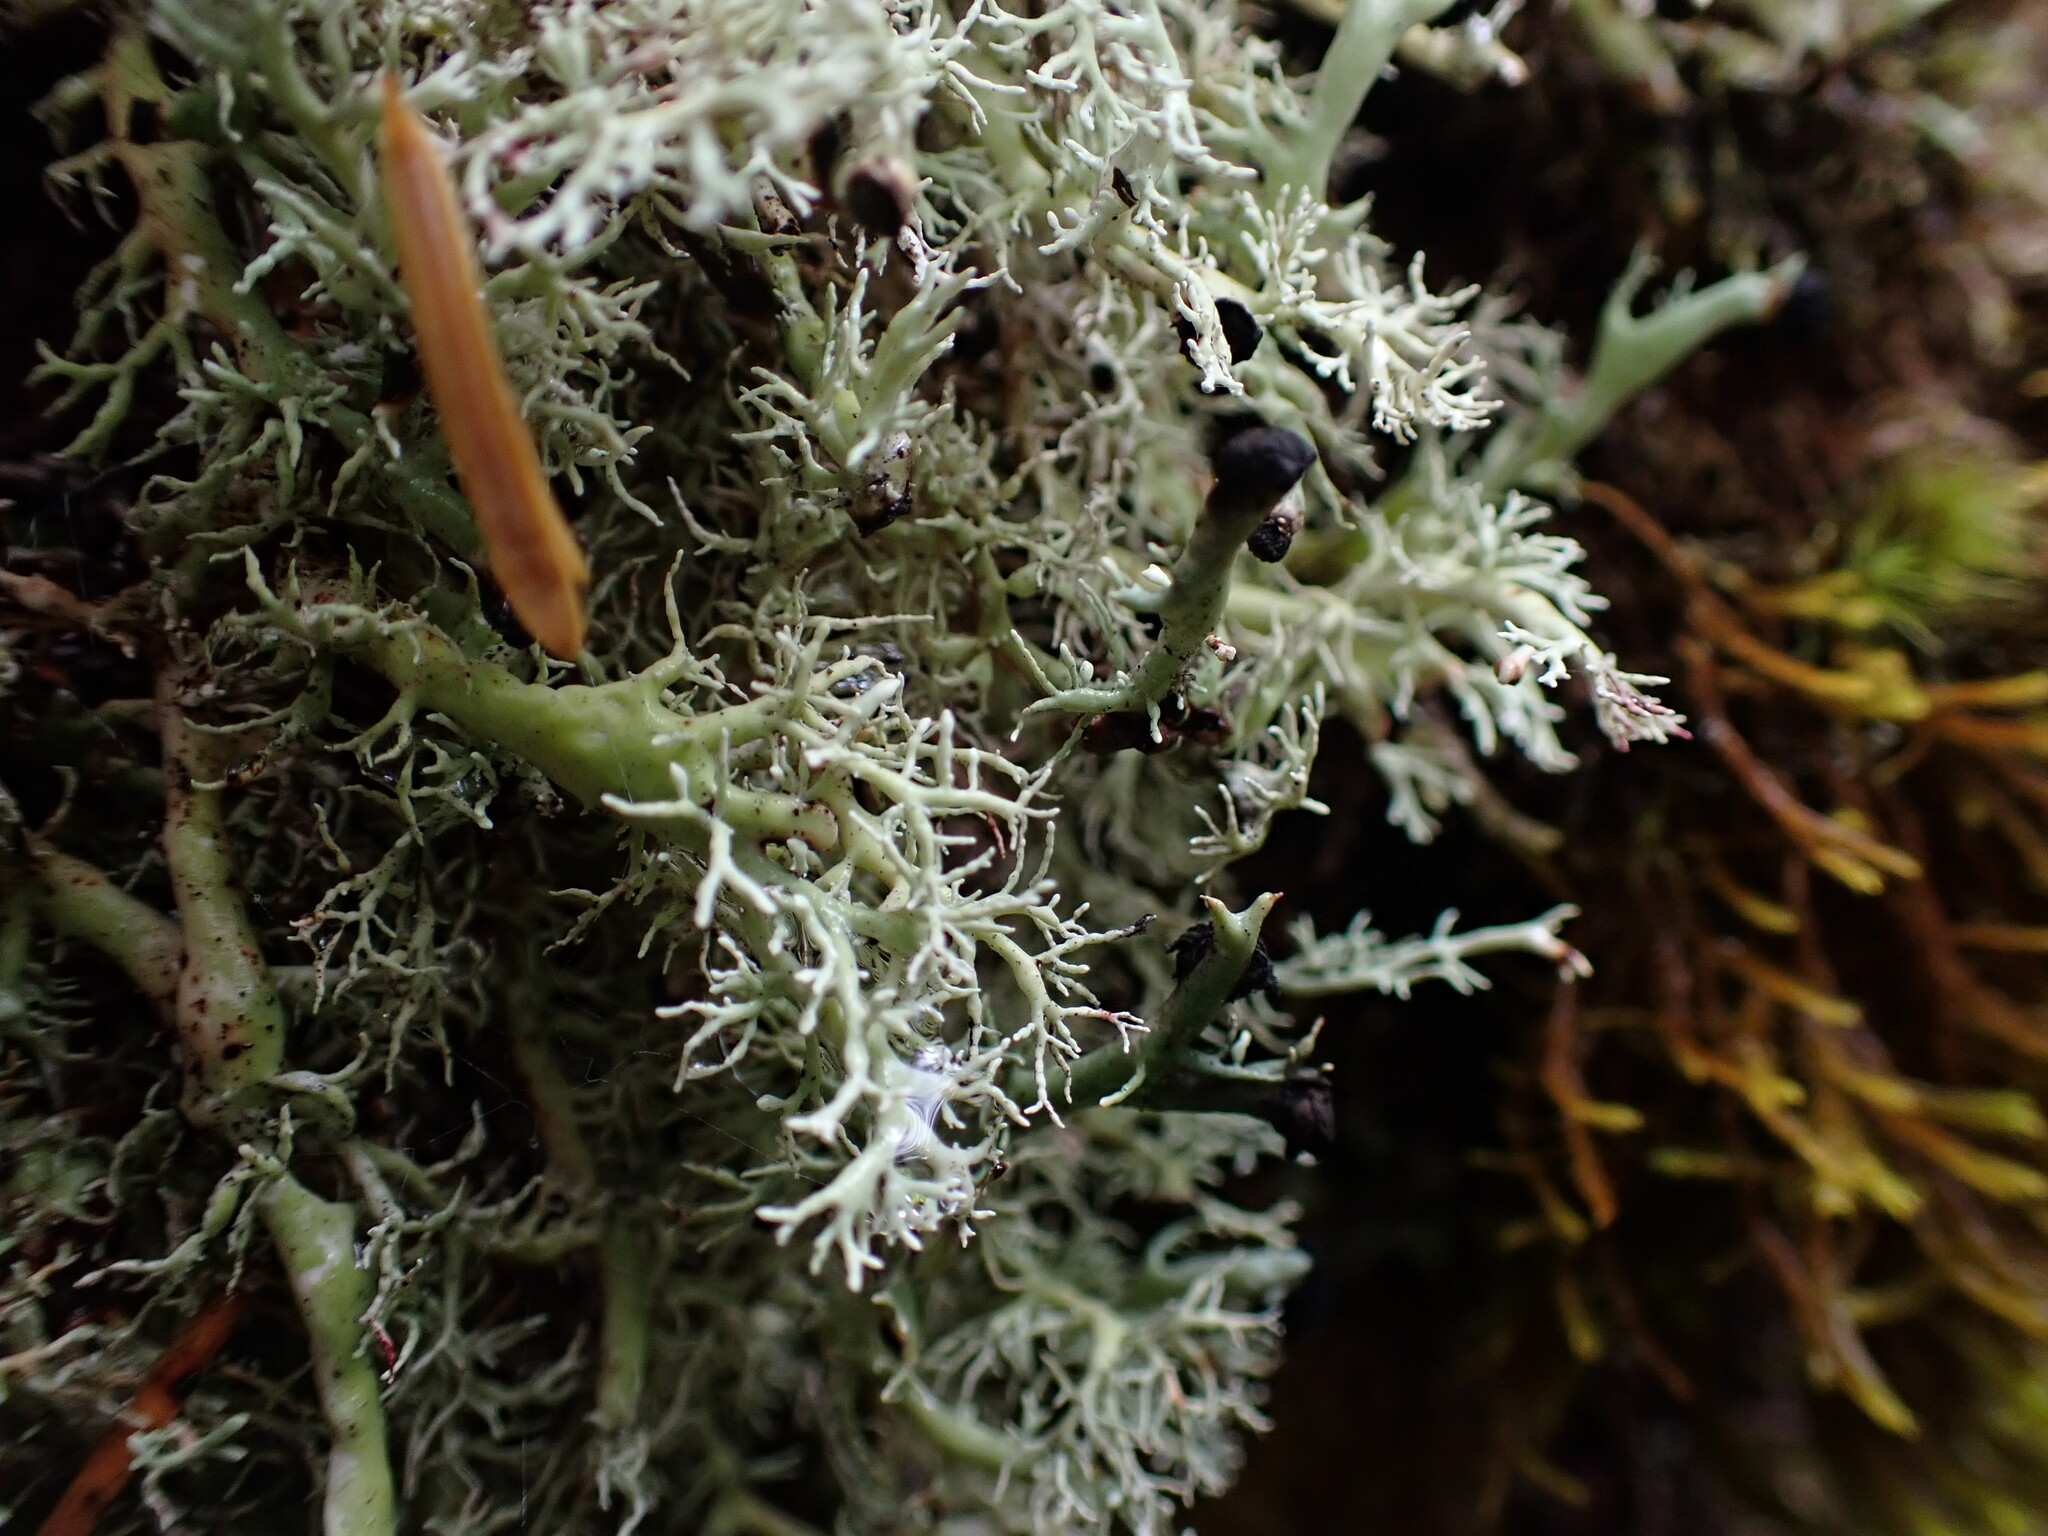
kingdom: Fungi
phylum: Ascomycota
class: Lecanoromycetes
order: Lecanorales
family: Sphaerophoraceae
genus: Bunodophoron
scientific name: Bunodophoron melanocarpum
